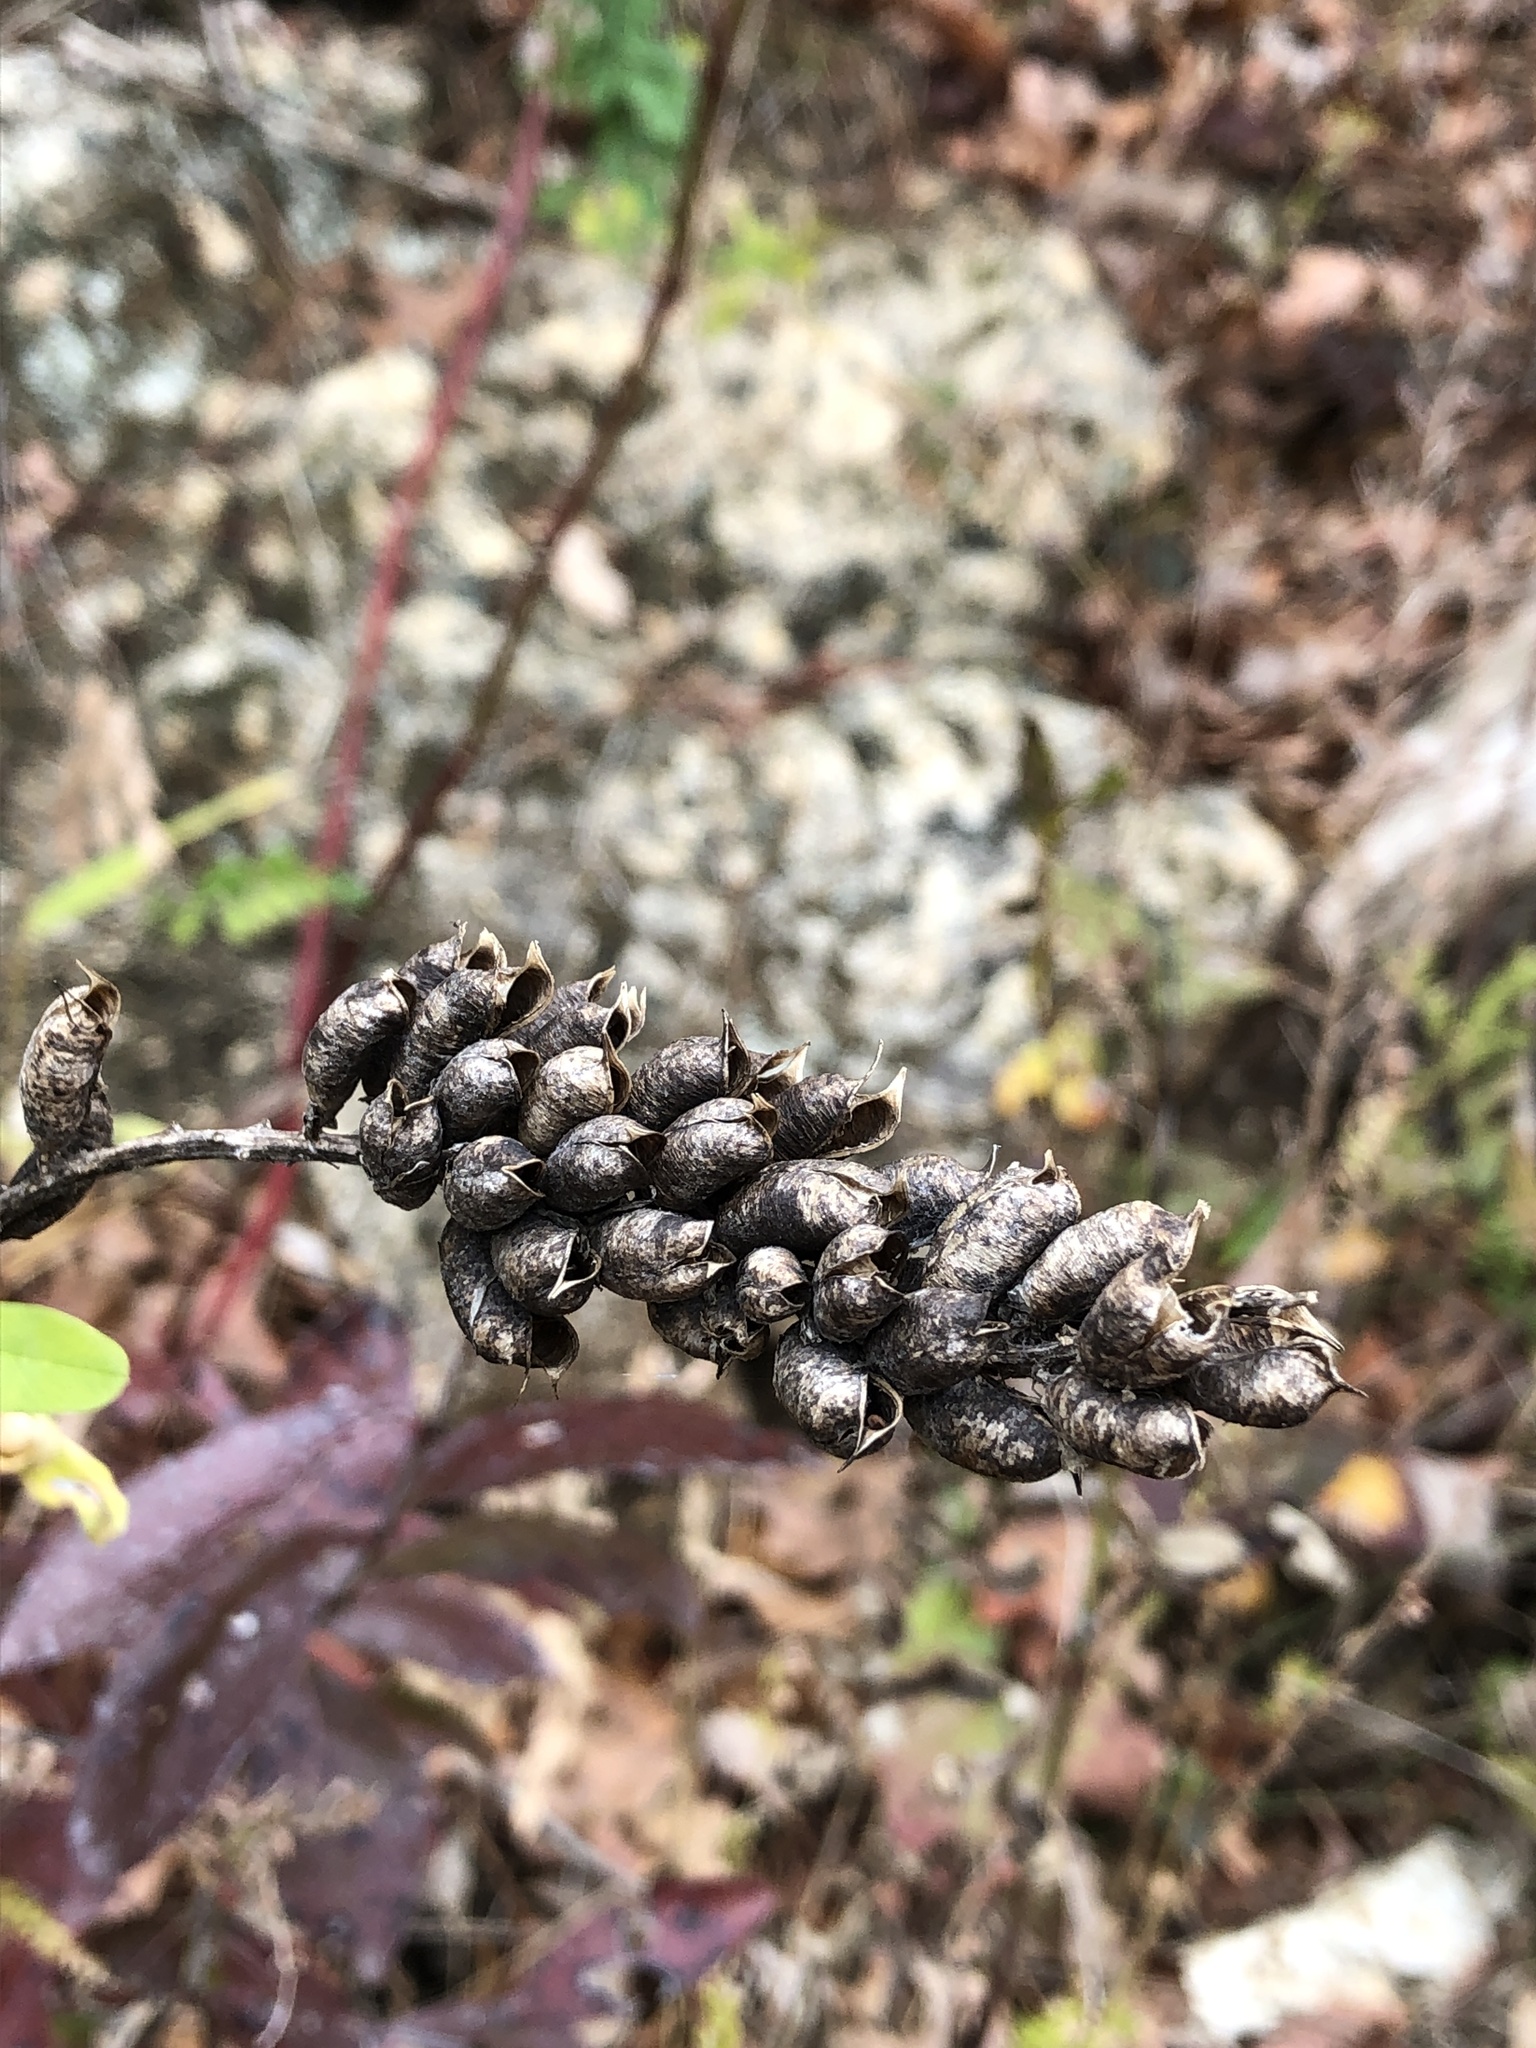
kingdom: Plantae
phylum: Tracheophyta
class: Magnoliopsida
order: Fabales
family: Fabaceae
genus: Astragalus
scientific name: Astragalus canadensis
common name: Canada milk-vetch
